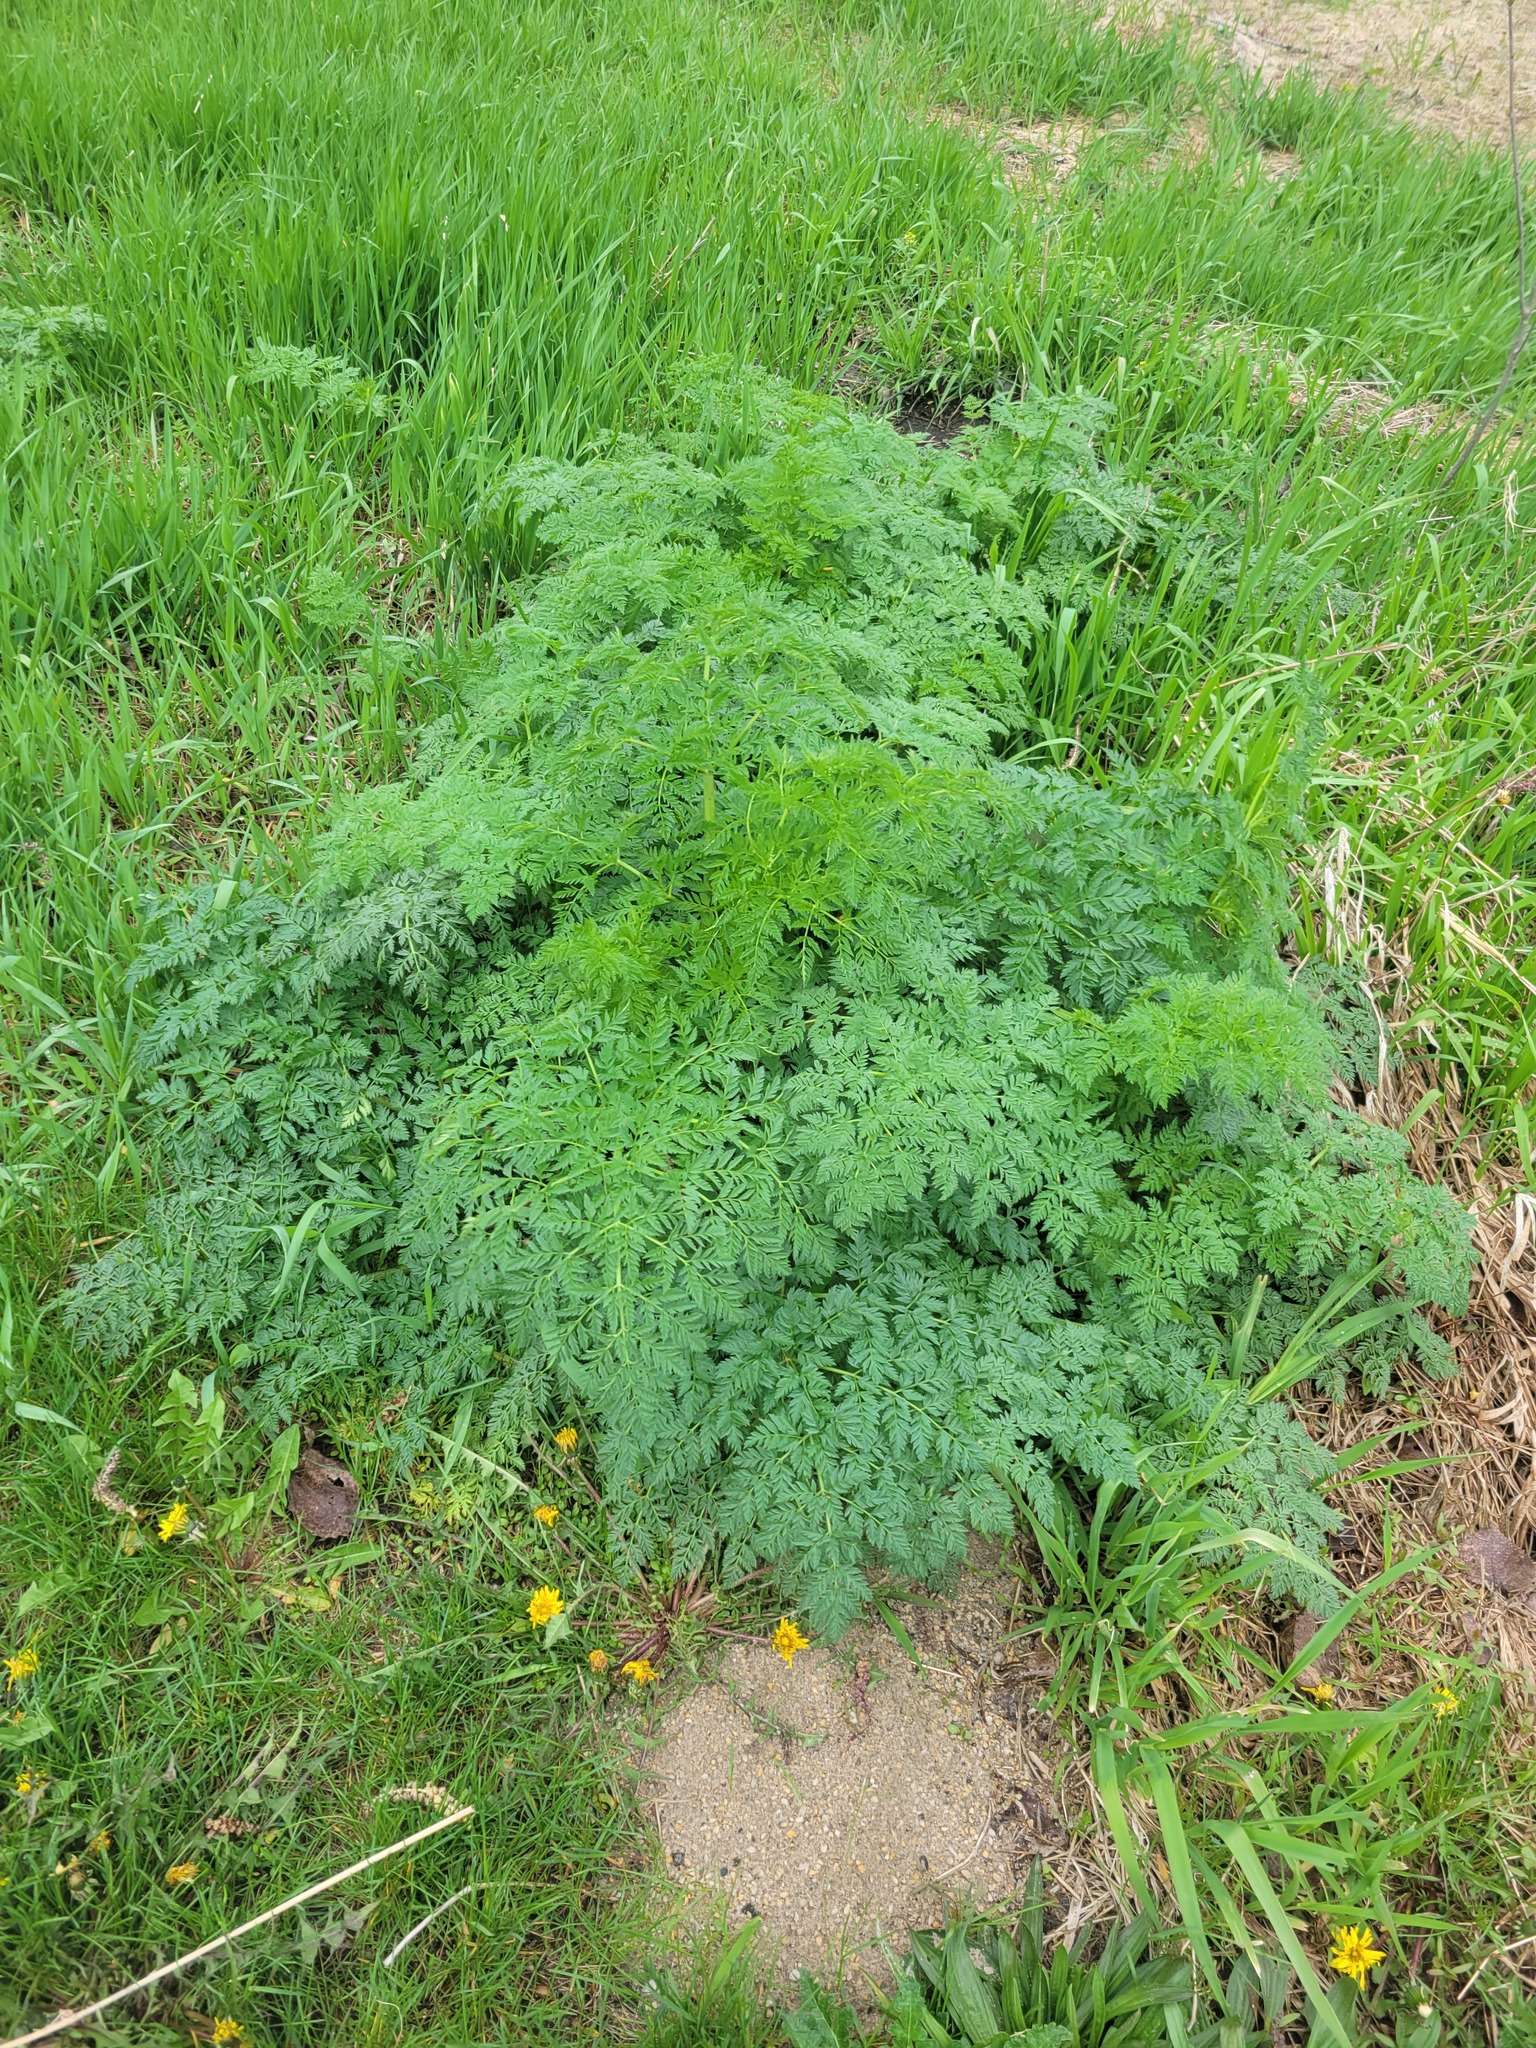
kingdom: Plantae
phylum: Tracheophyta
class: Magnoliopsida
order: Apiales
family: Apiaceae
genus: Conium
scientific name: Conium maculatum
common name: Hemlock
